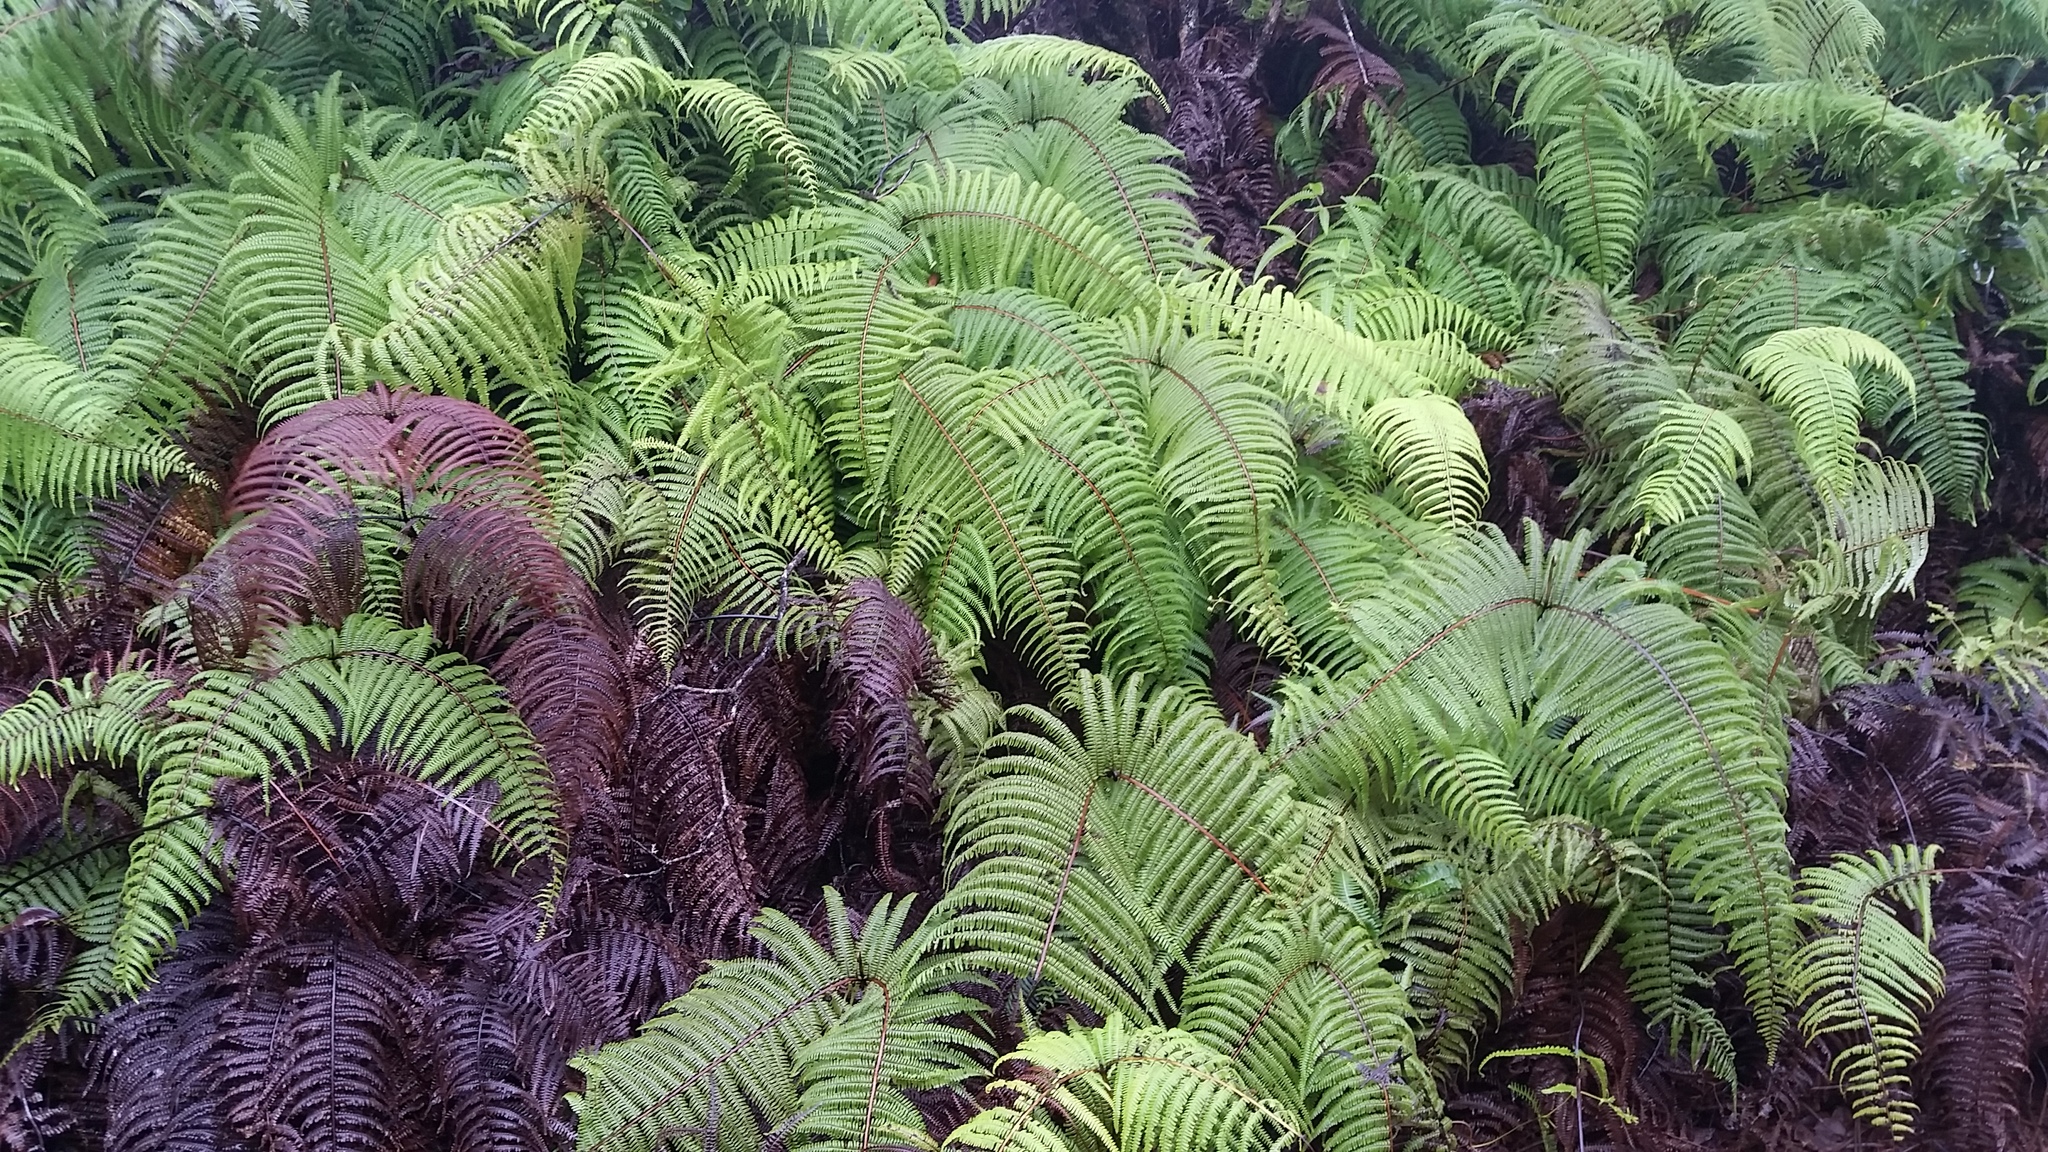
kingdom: Plantae
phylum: Tracheophyta
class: Polypodiopsida
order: Gleicheniales
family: Gleicheniaceae
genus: Diplopterygium
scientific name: Diplopterygium pinnatum
